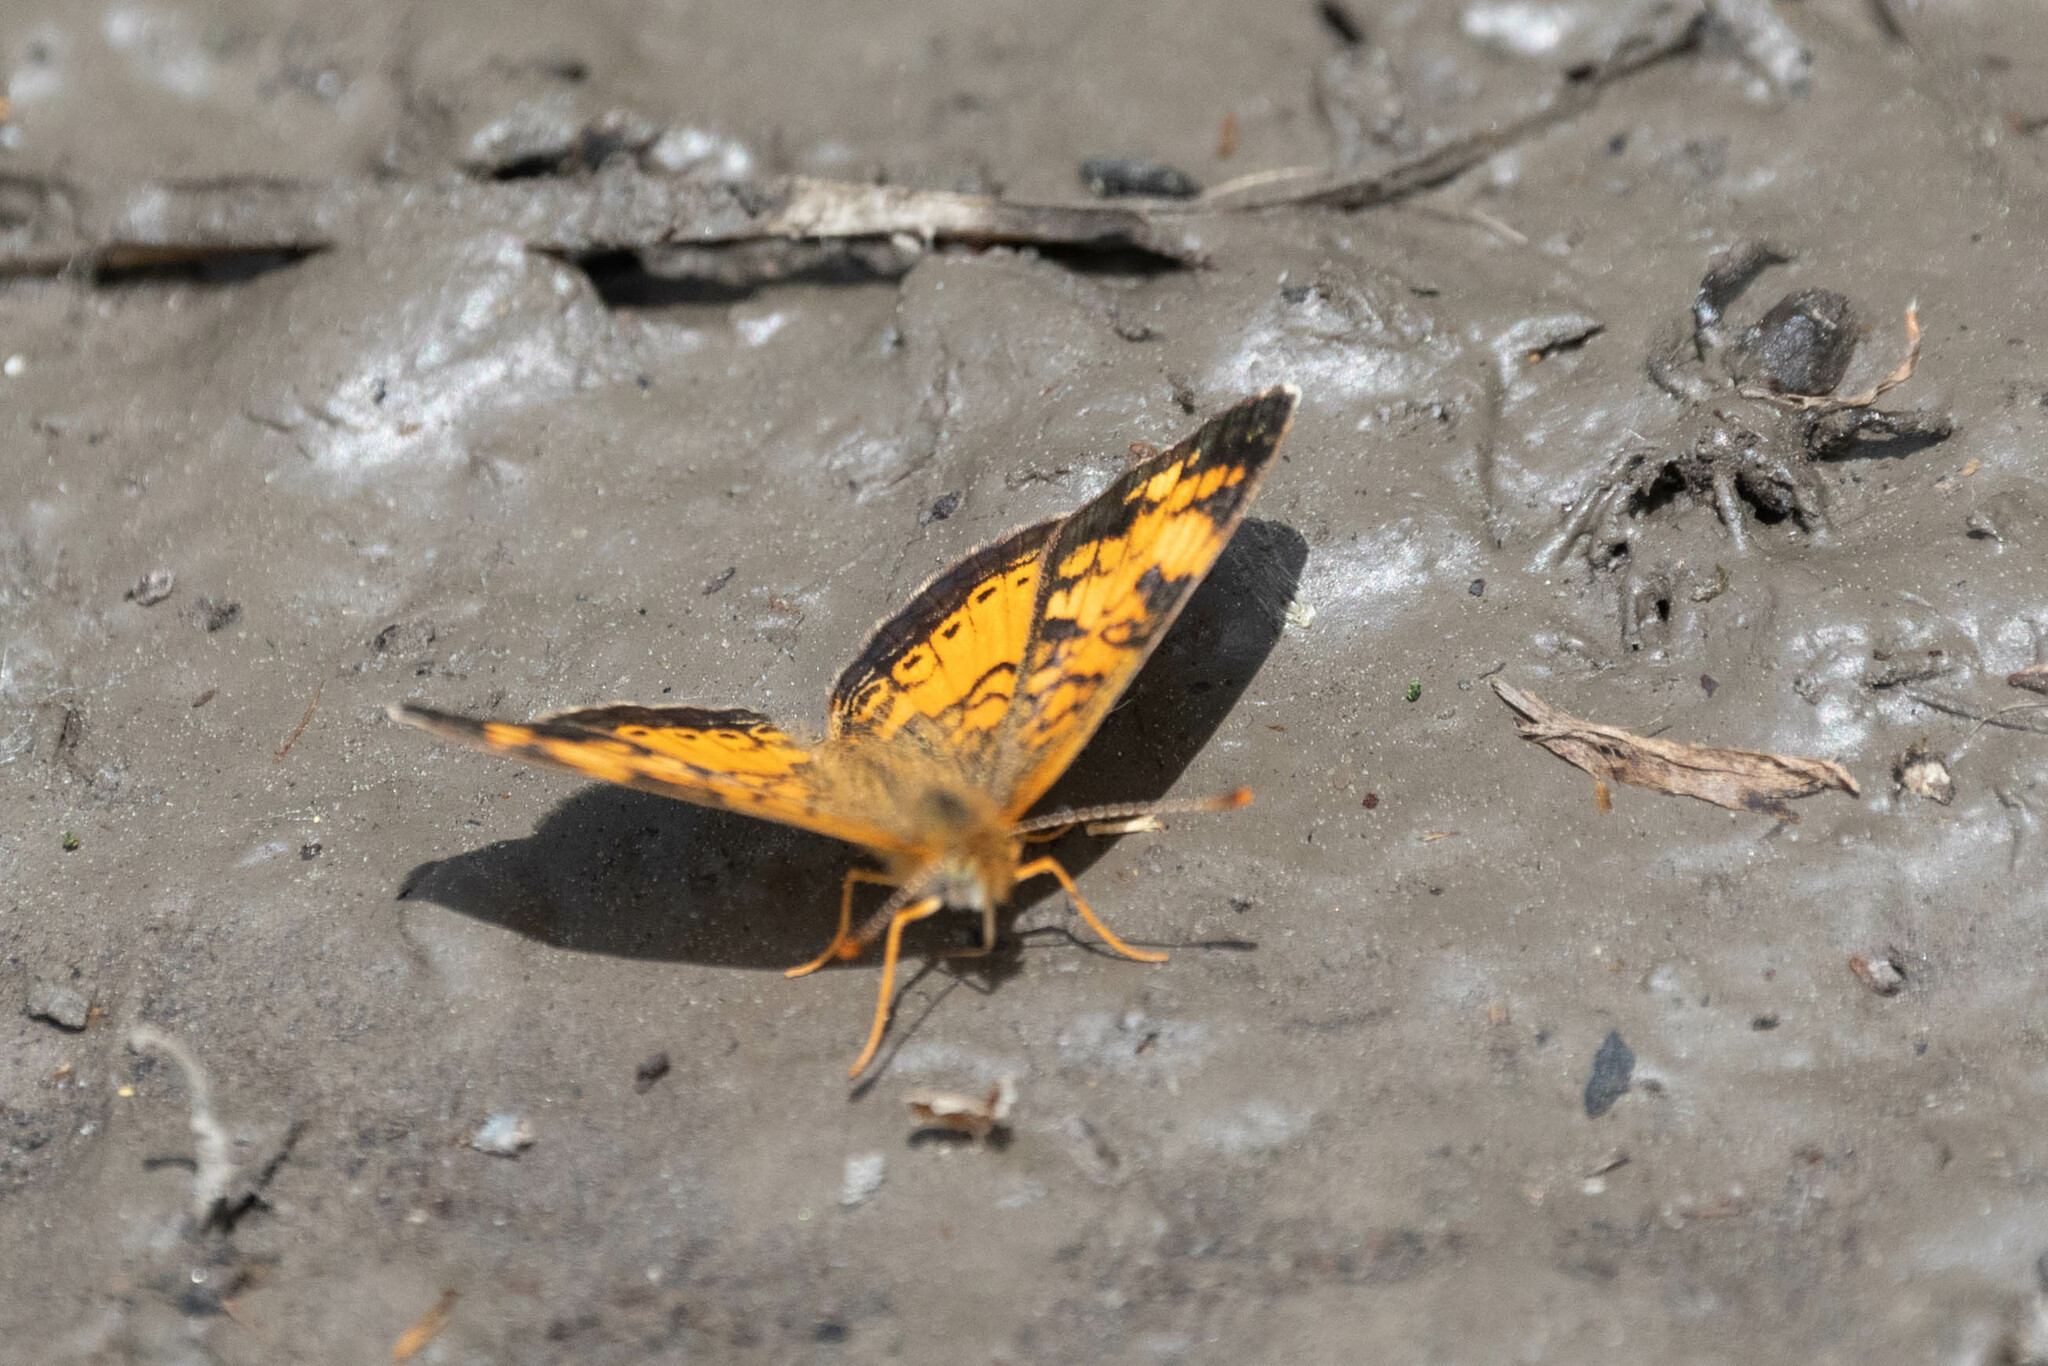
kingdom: Animalia
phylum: Arthropoda
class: Insecta
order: Lepidoptera
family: Nymphalidae
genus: Phyciodes
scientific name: Phyciodes tharos
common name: Pearl crescent
